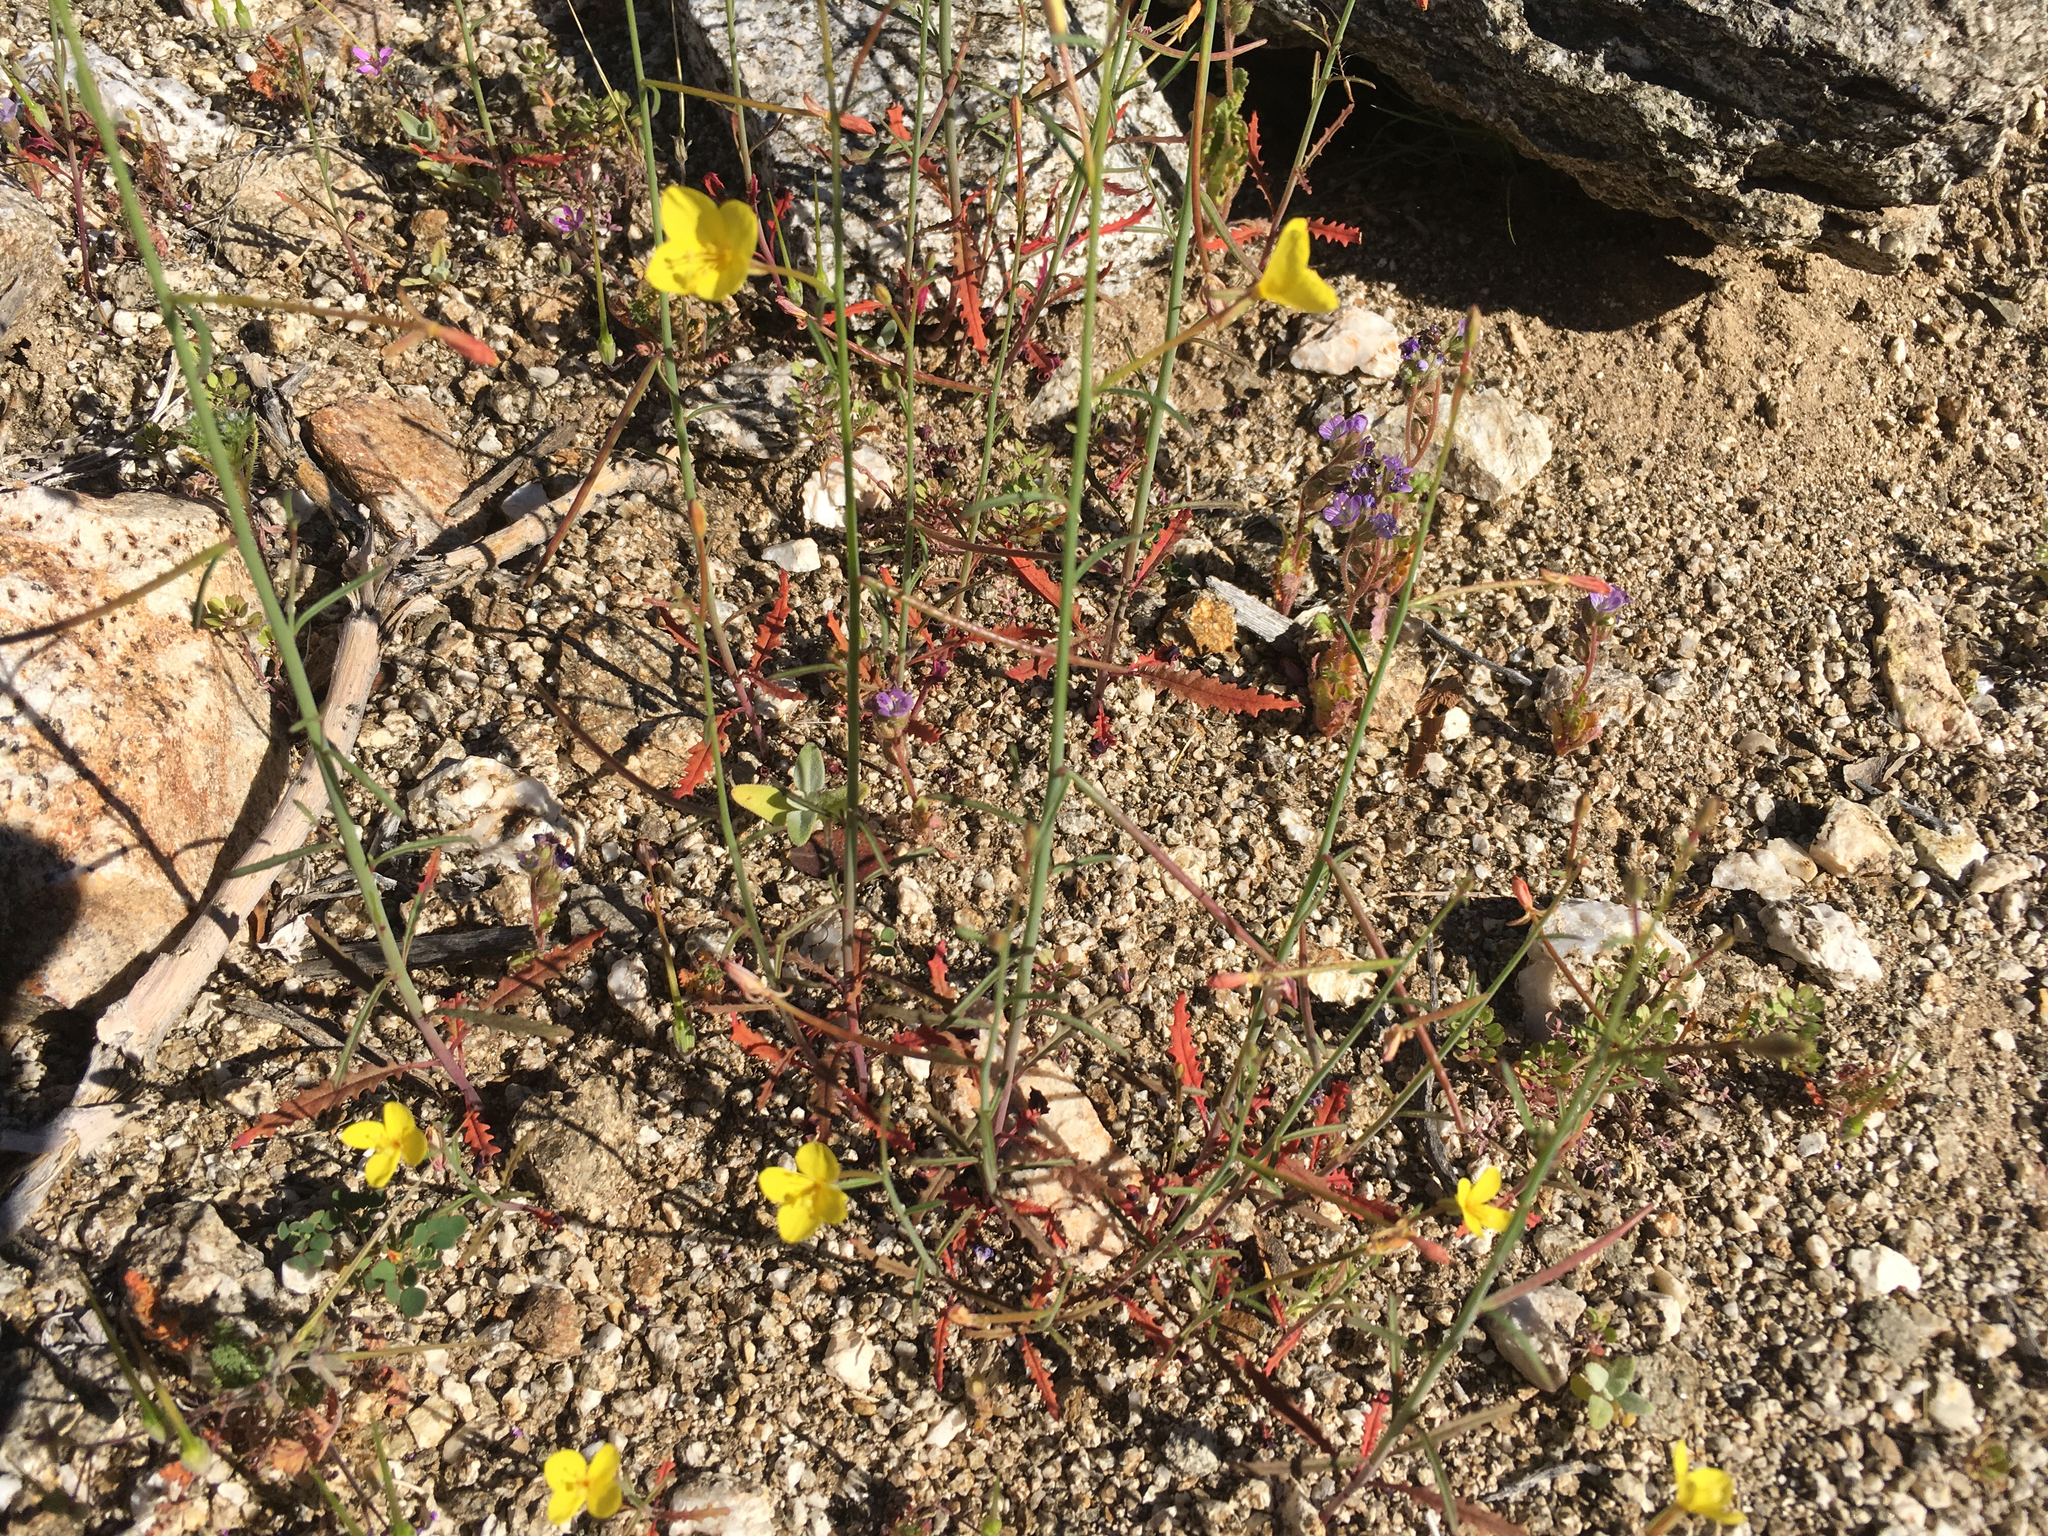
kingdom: Plantae
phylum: Tracheophyta
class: Magnoliopsida
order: Myrtales
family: Onagraceae
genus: Eulobus
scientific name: Eulobus californicus
